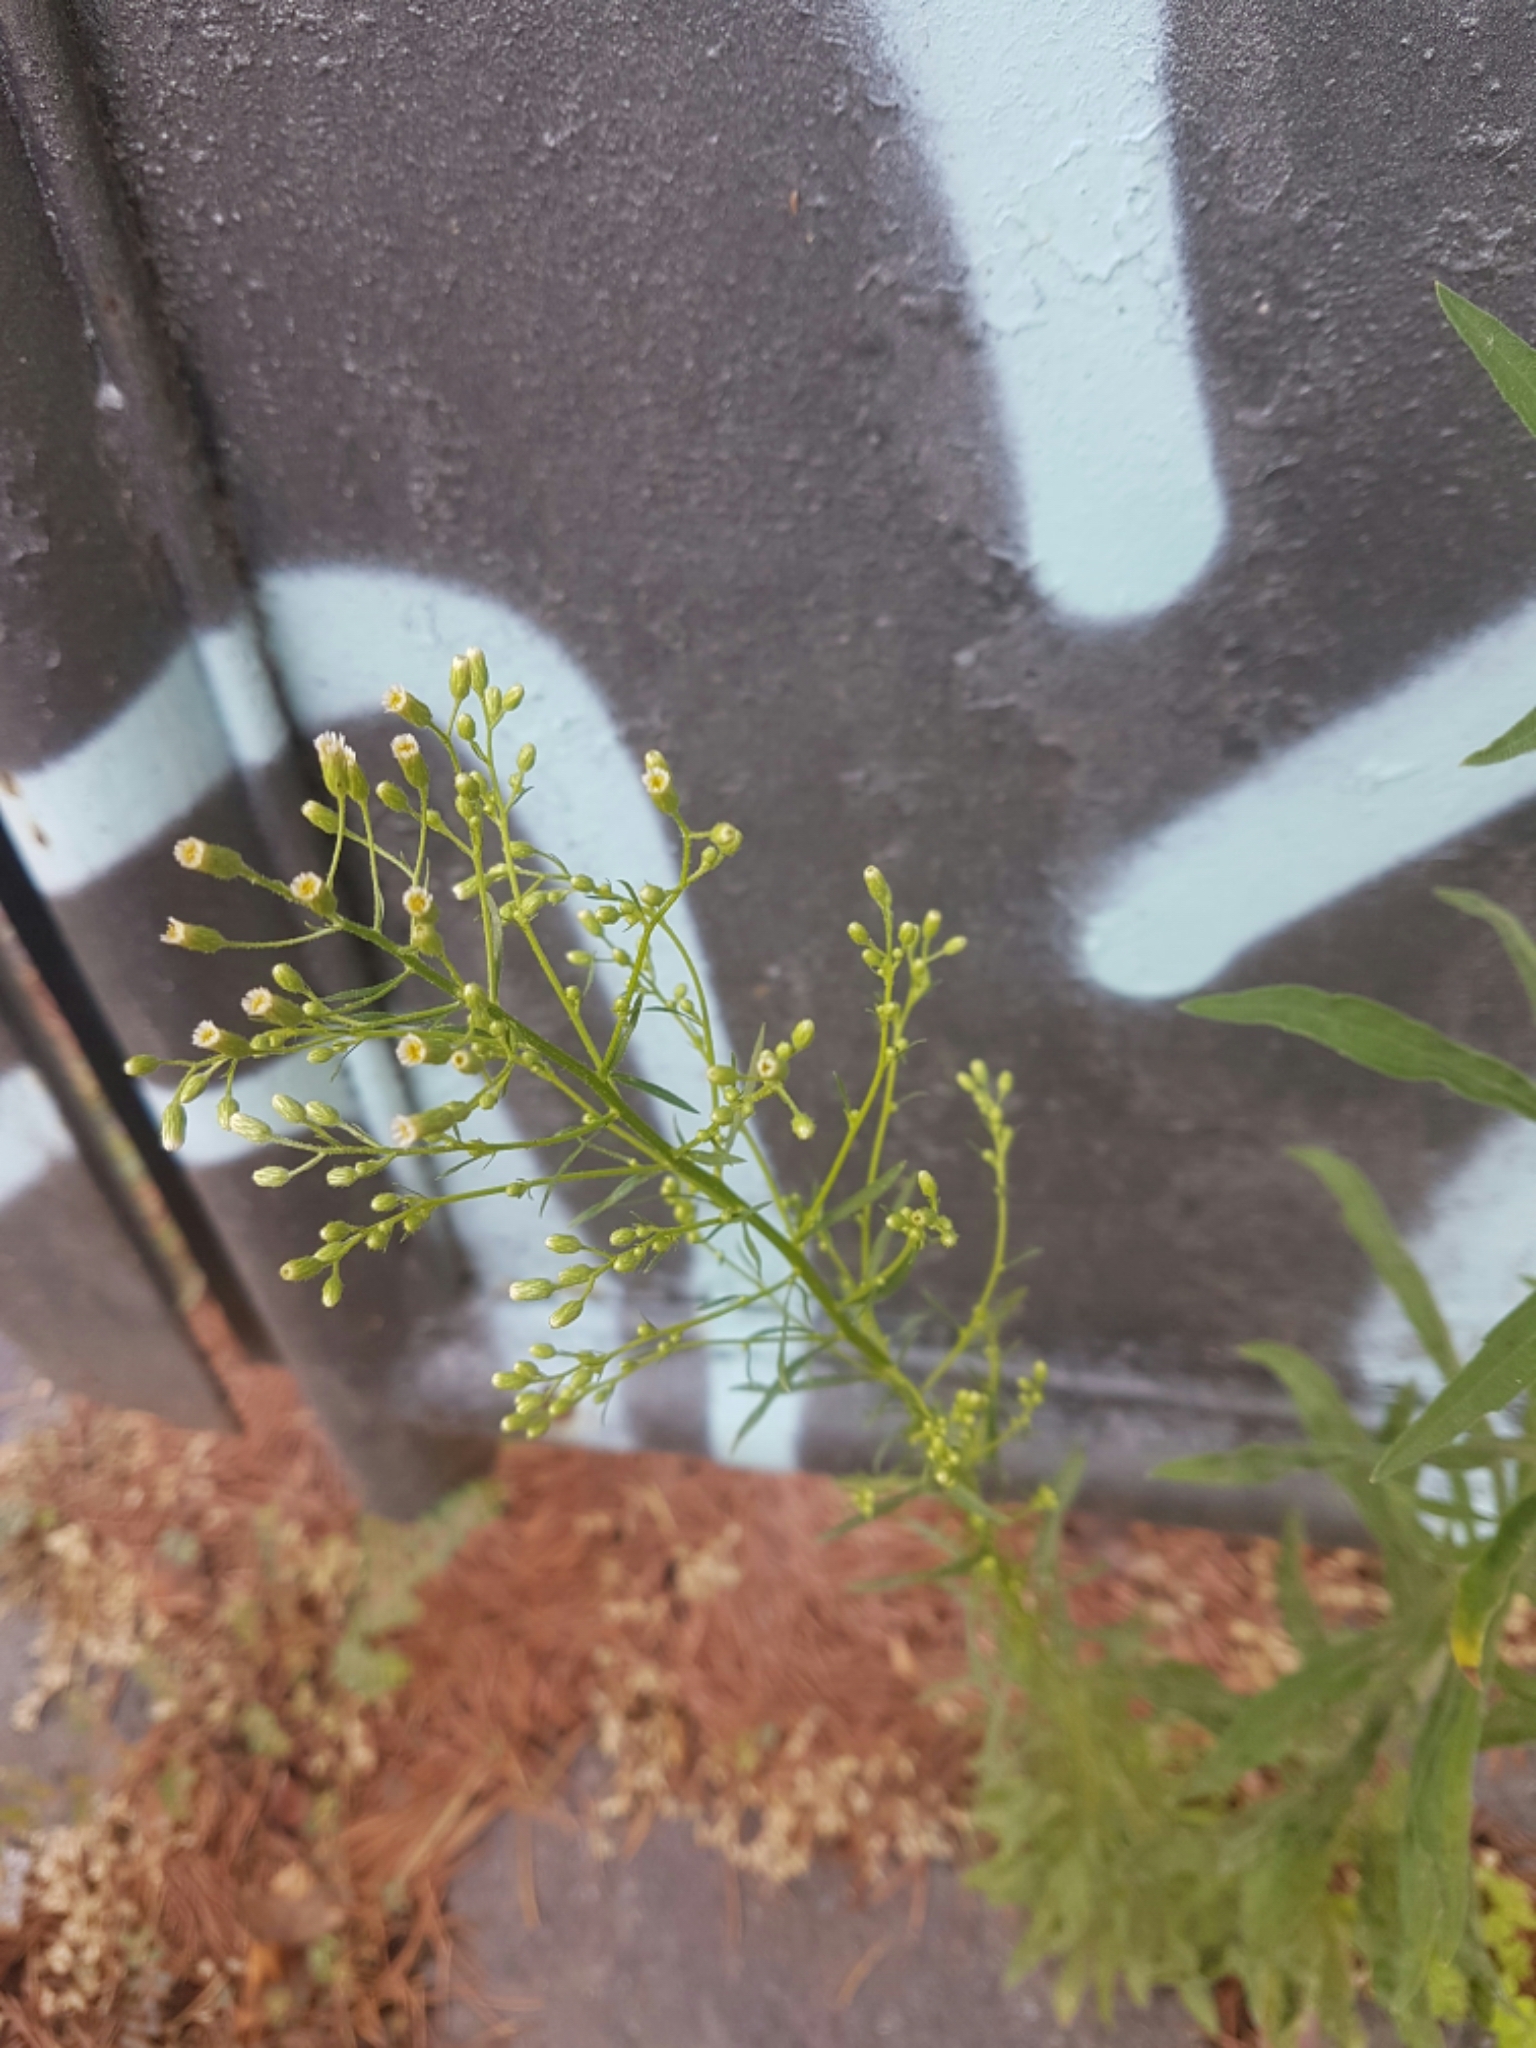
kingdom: Plantae
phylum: Tracheophyta
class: Magnoliopsida
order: Asterales
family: Asteraceae
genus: Erigeron
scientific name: Erigeron canadensis
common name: Canadian fleabane
